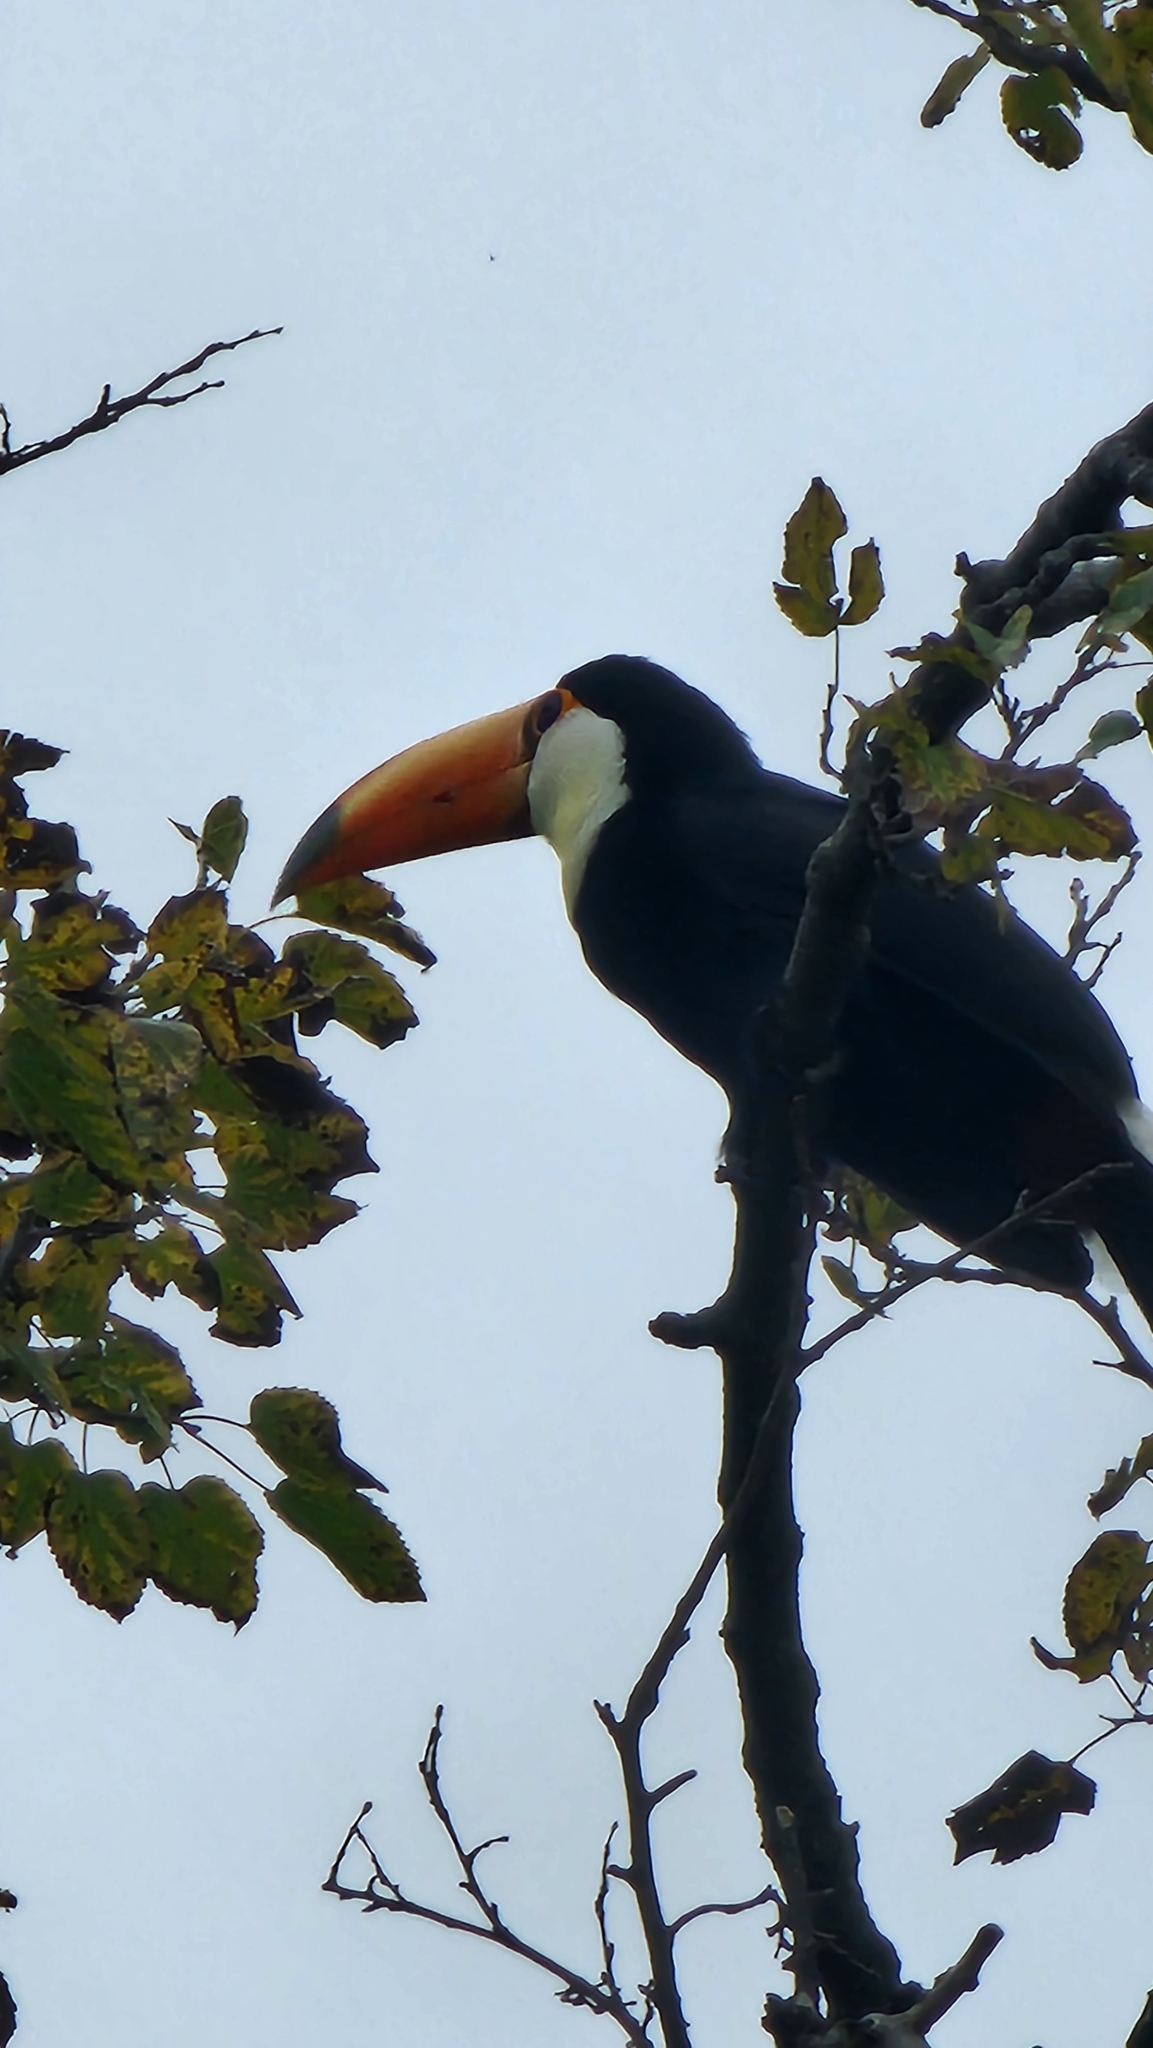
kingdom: Animalia
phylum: Chordata
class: Aves
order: Piciformes
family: Ramphastidae
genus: Ramphastos
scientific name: Ramphastos toco
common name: Toco toucan
